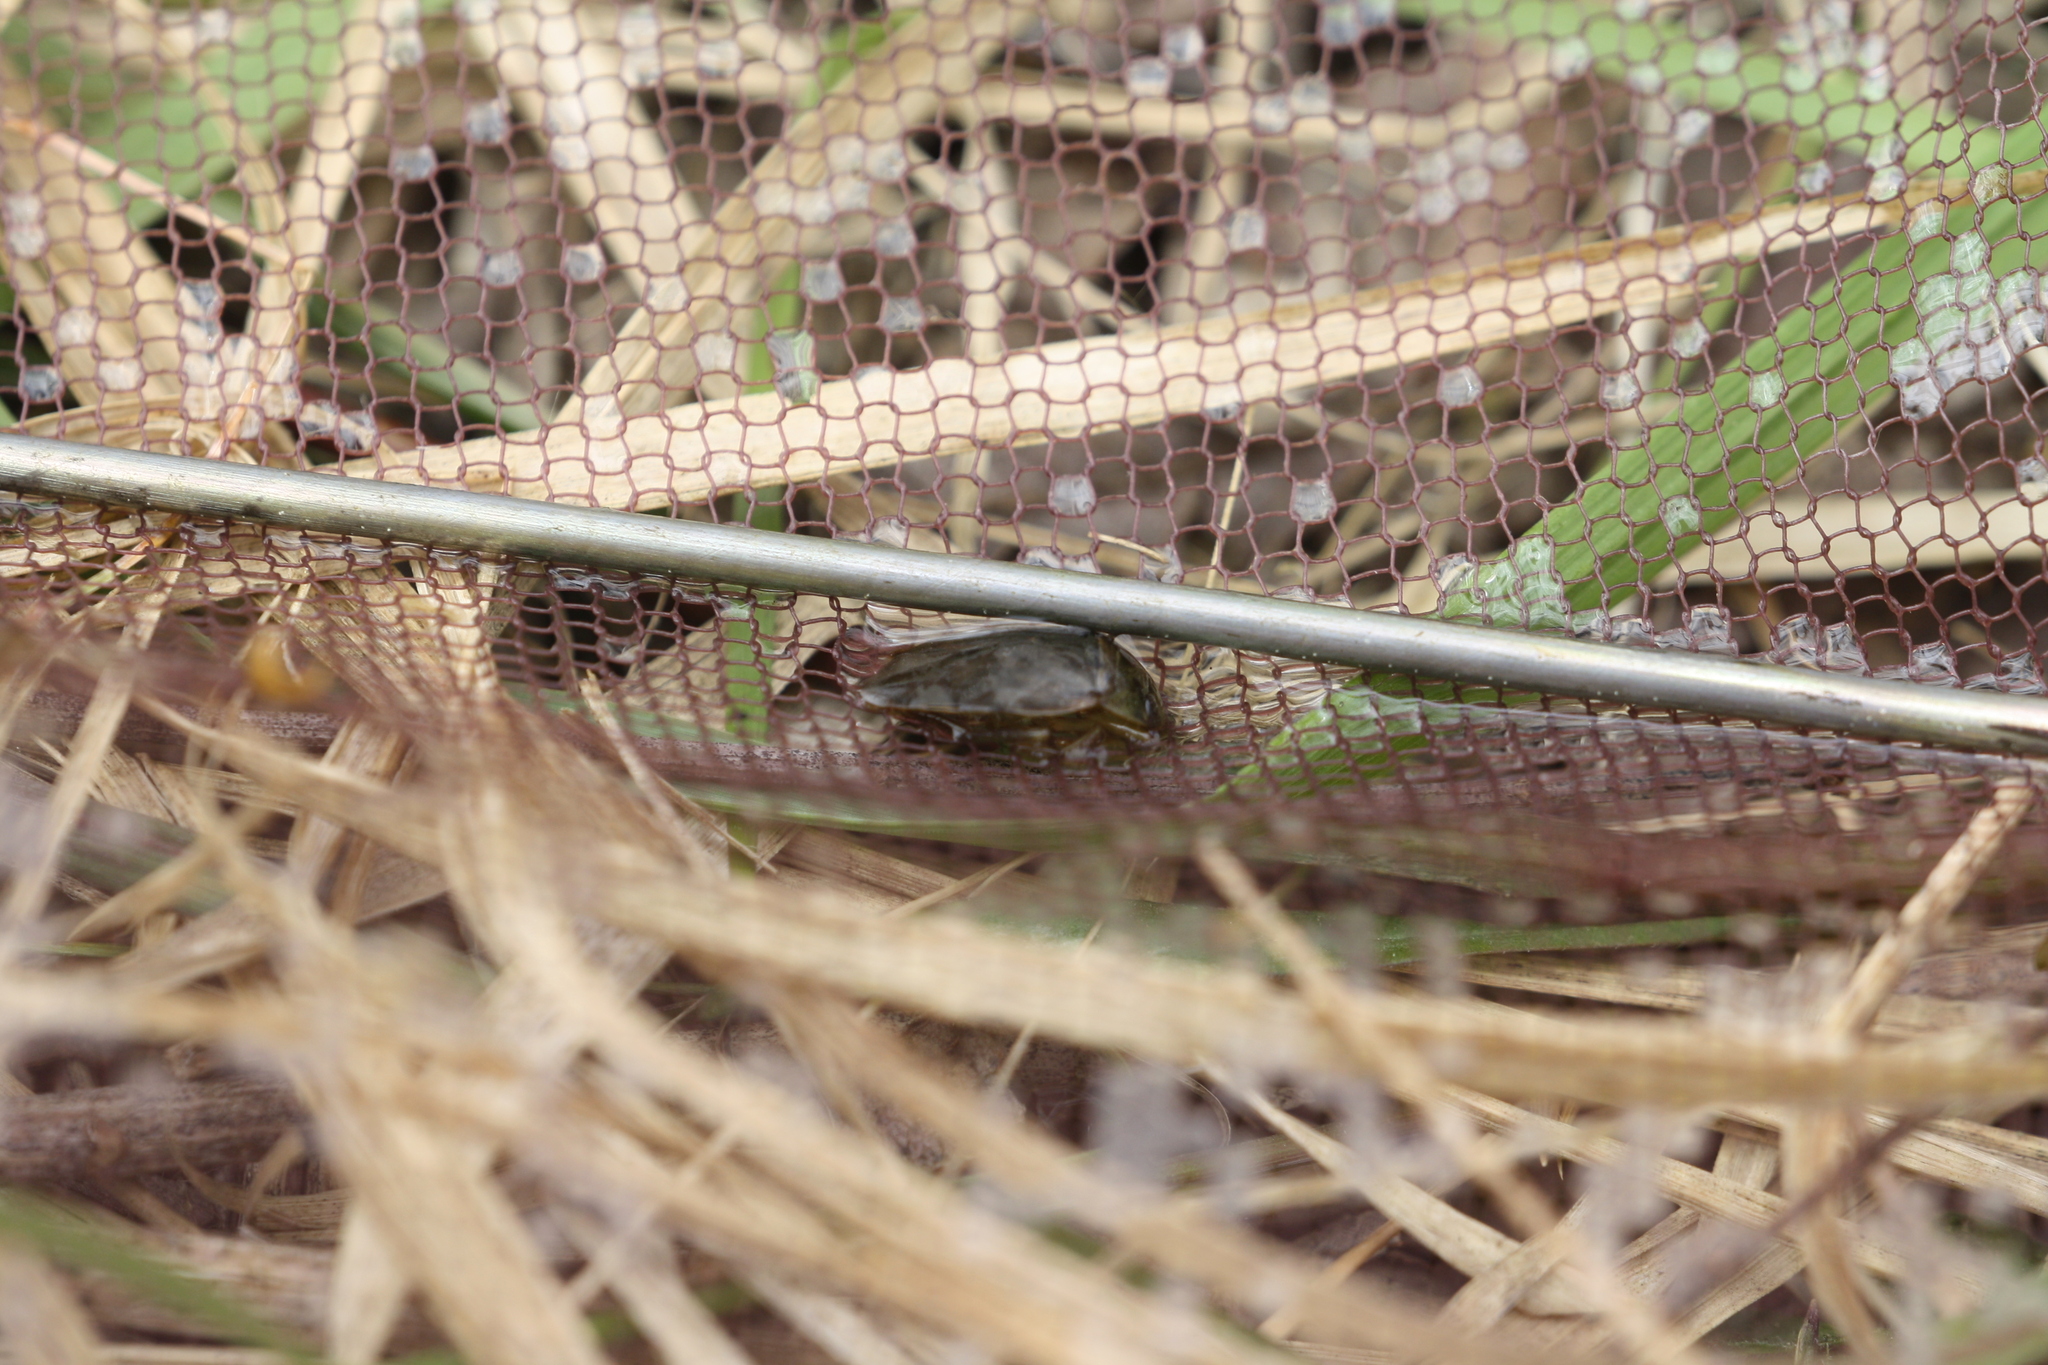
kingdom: Animalia
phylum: Arthropoda
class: Insecta
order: Hemiptera
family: Naucoridae
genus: Ilyocoris
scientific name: Ilyocoris cimicoides
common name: Saucer bugs
